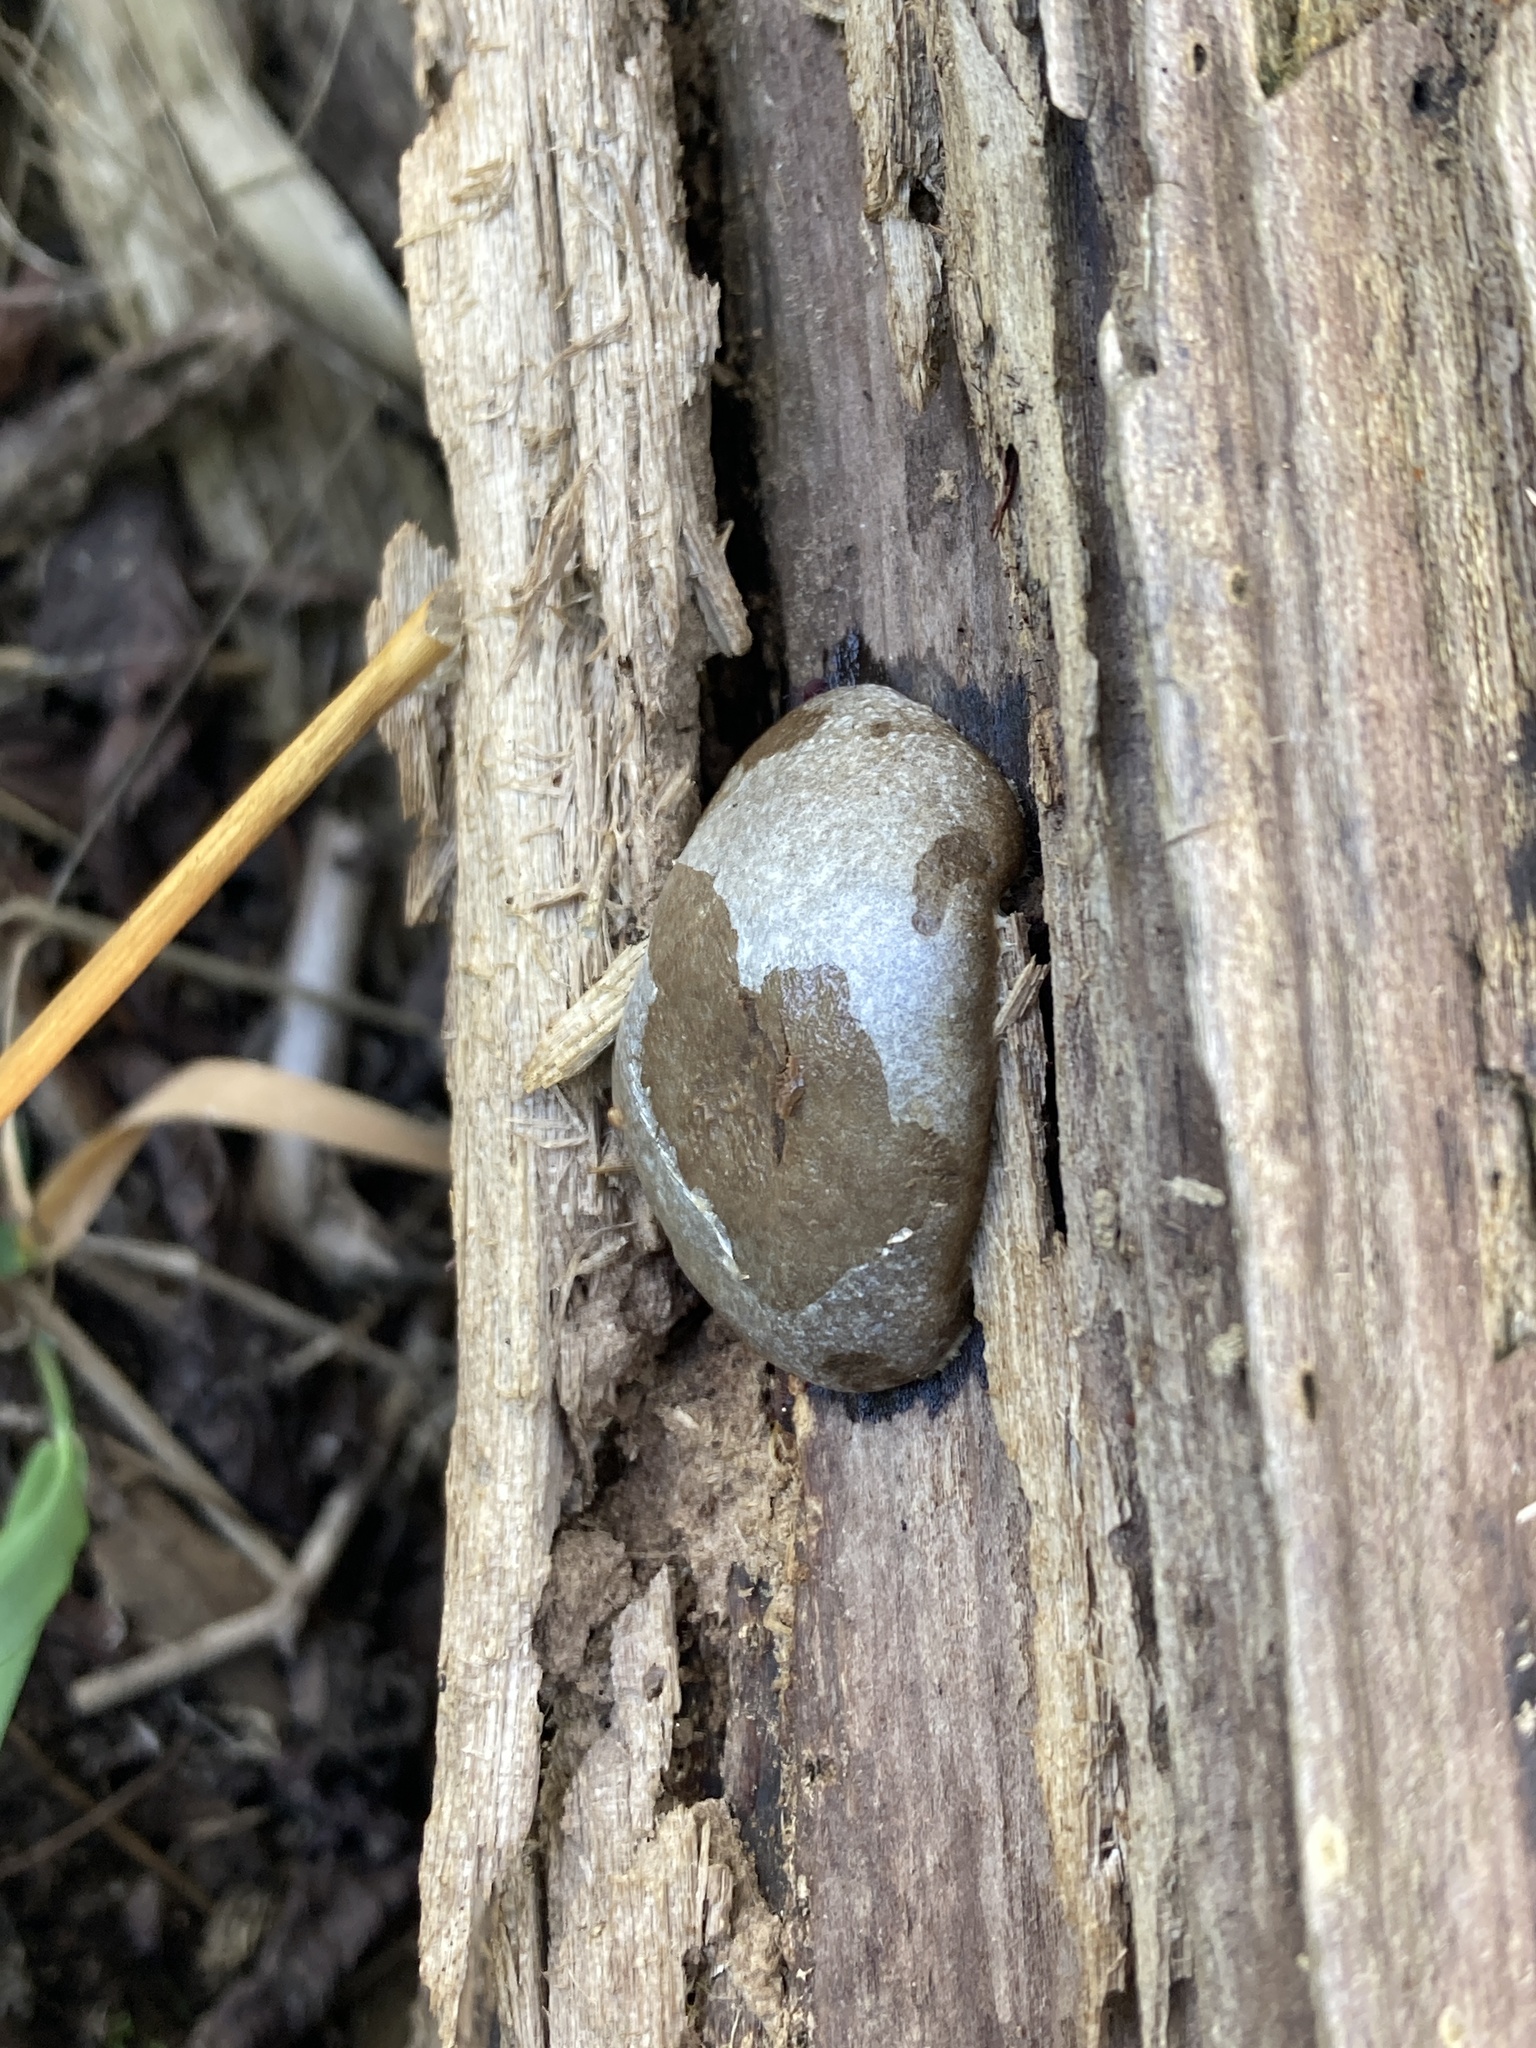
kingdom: Protozoa
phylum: Mycetozoa
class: Myxomycetes
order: Cribrariales
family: Tubiferaceae
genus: Reticularia
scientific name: Reticularia lycoperdon
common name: False puffball
